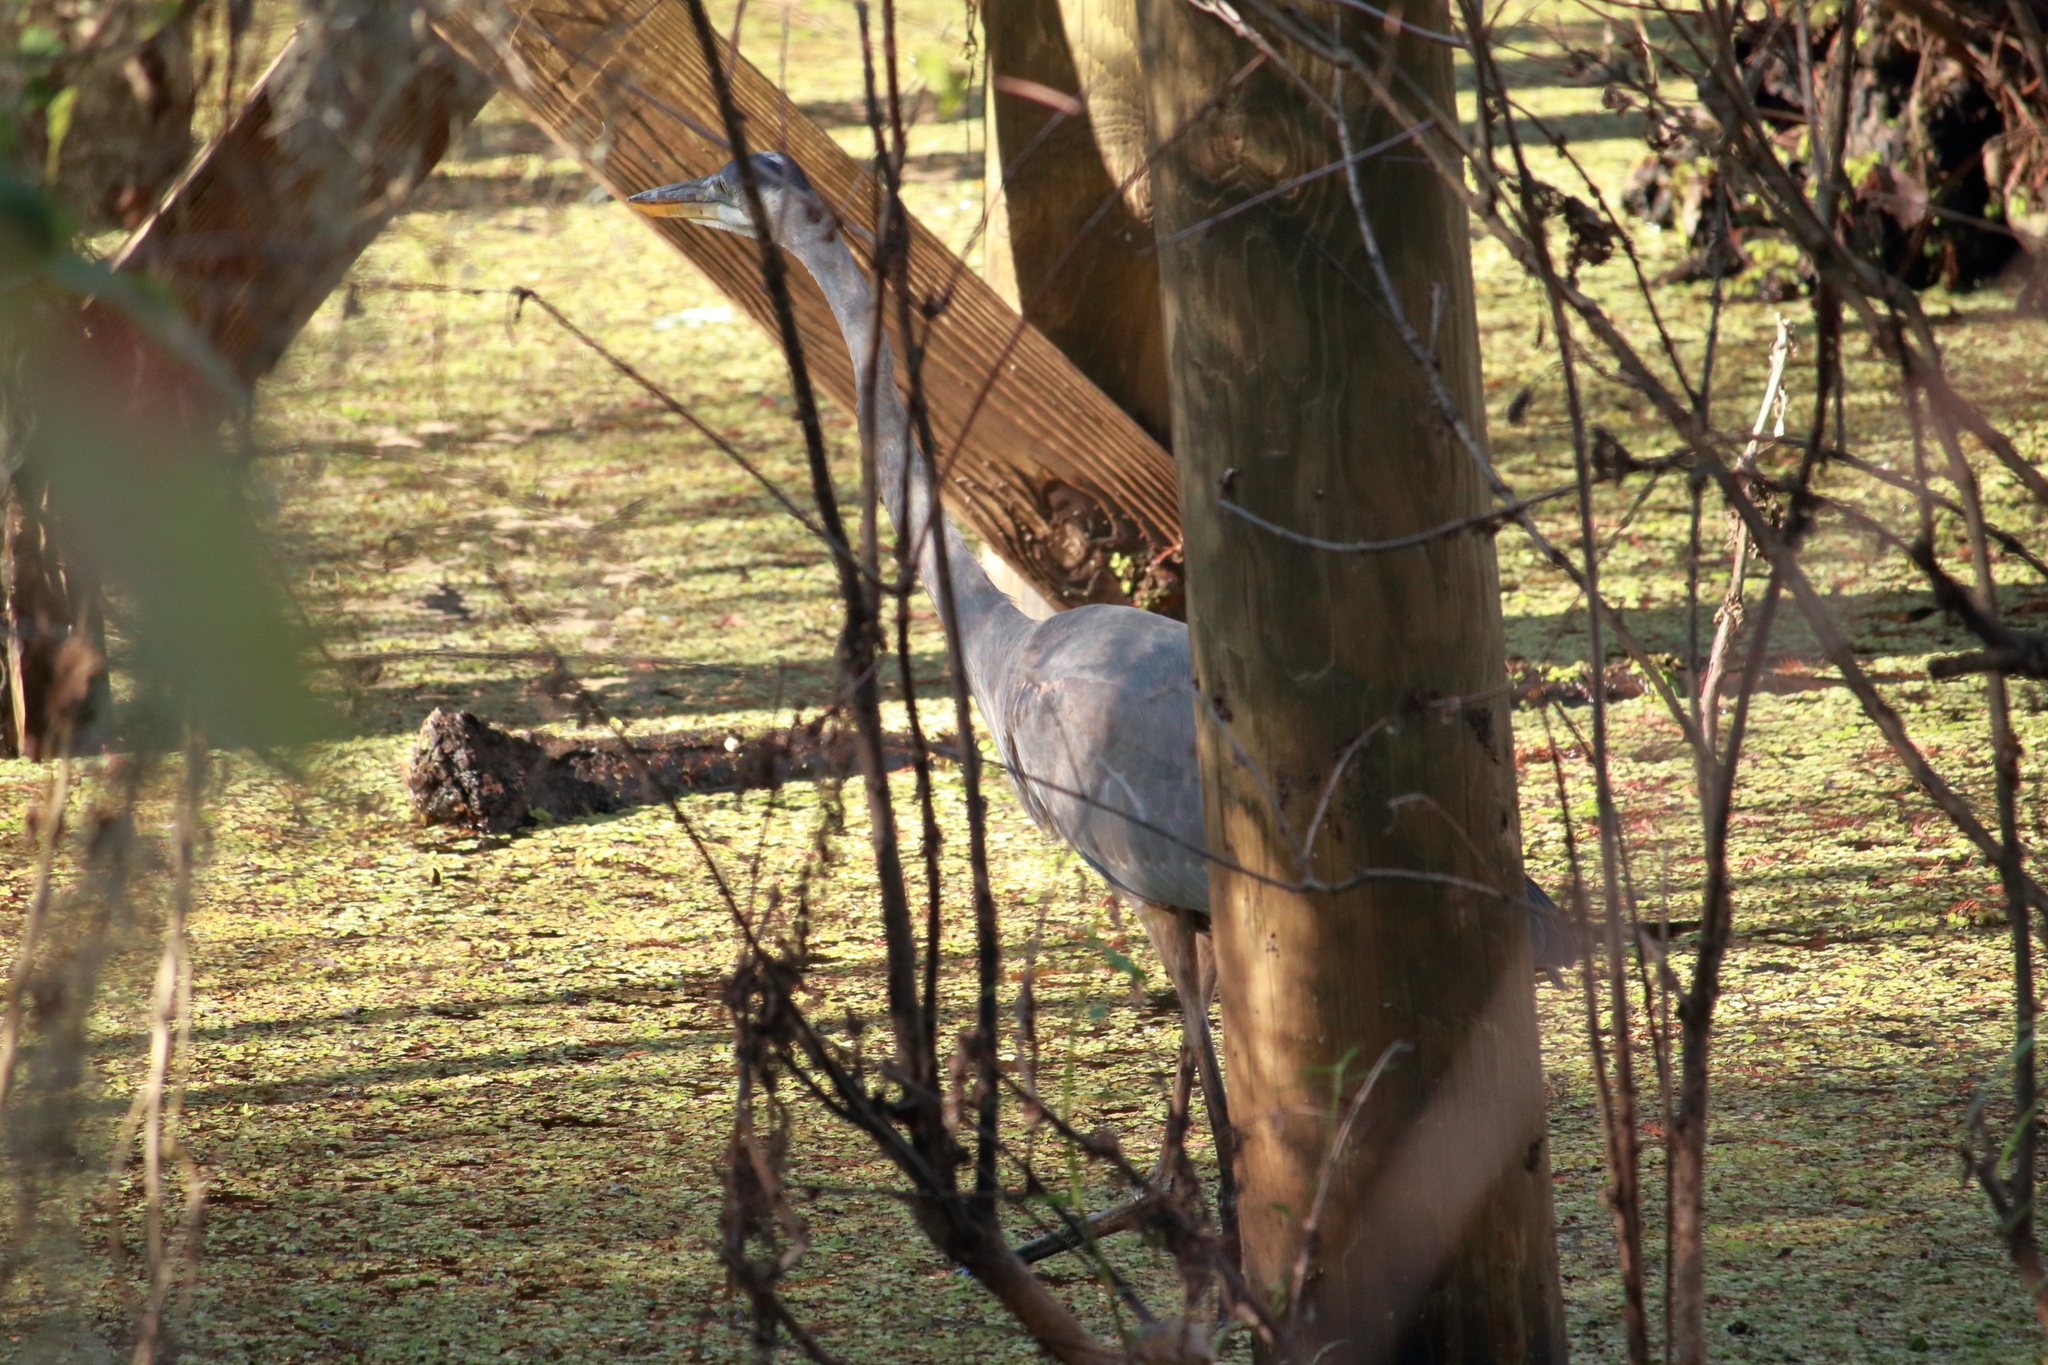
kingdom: Animalia
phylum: Chordata
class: Aves
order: Pelecaniformes
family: Ardeidae
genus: Ardea
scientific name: Ardea herodias
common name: Great blue heron
